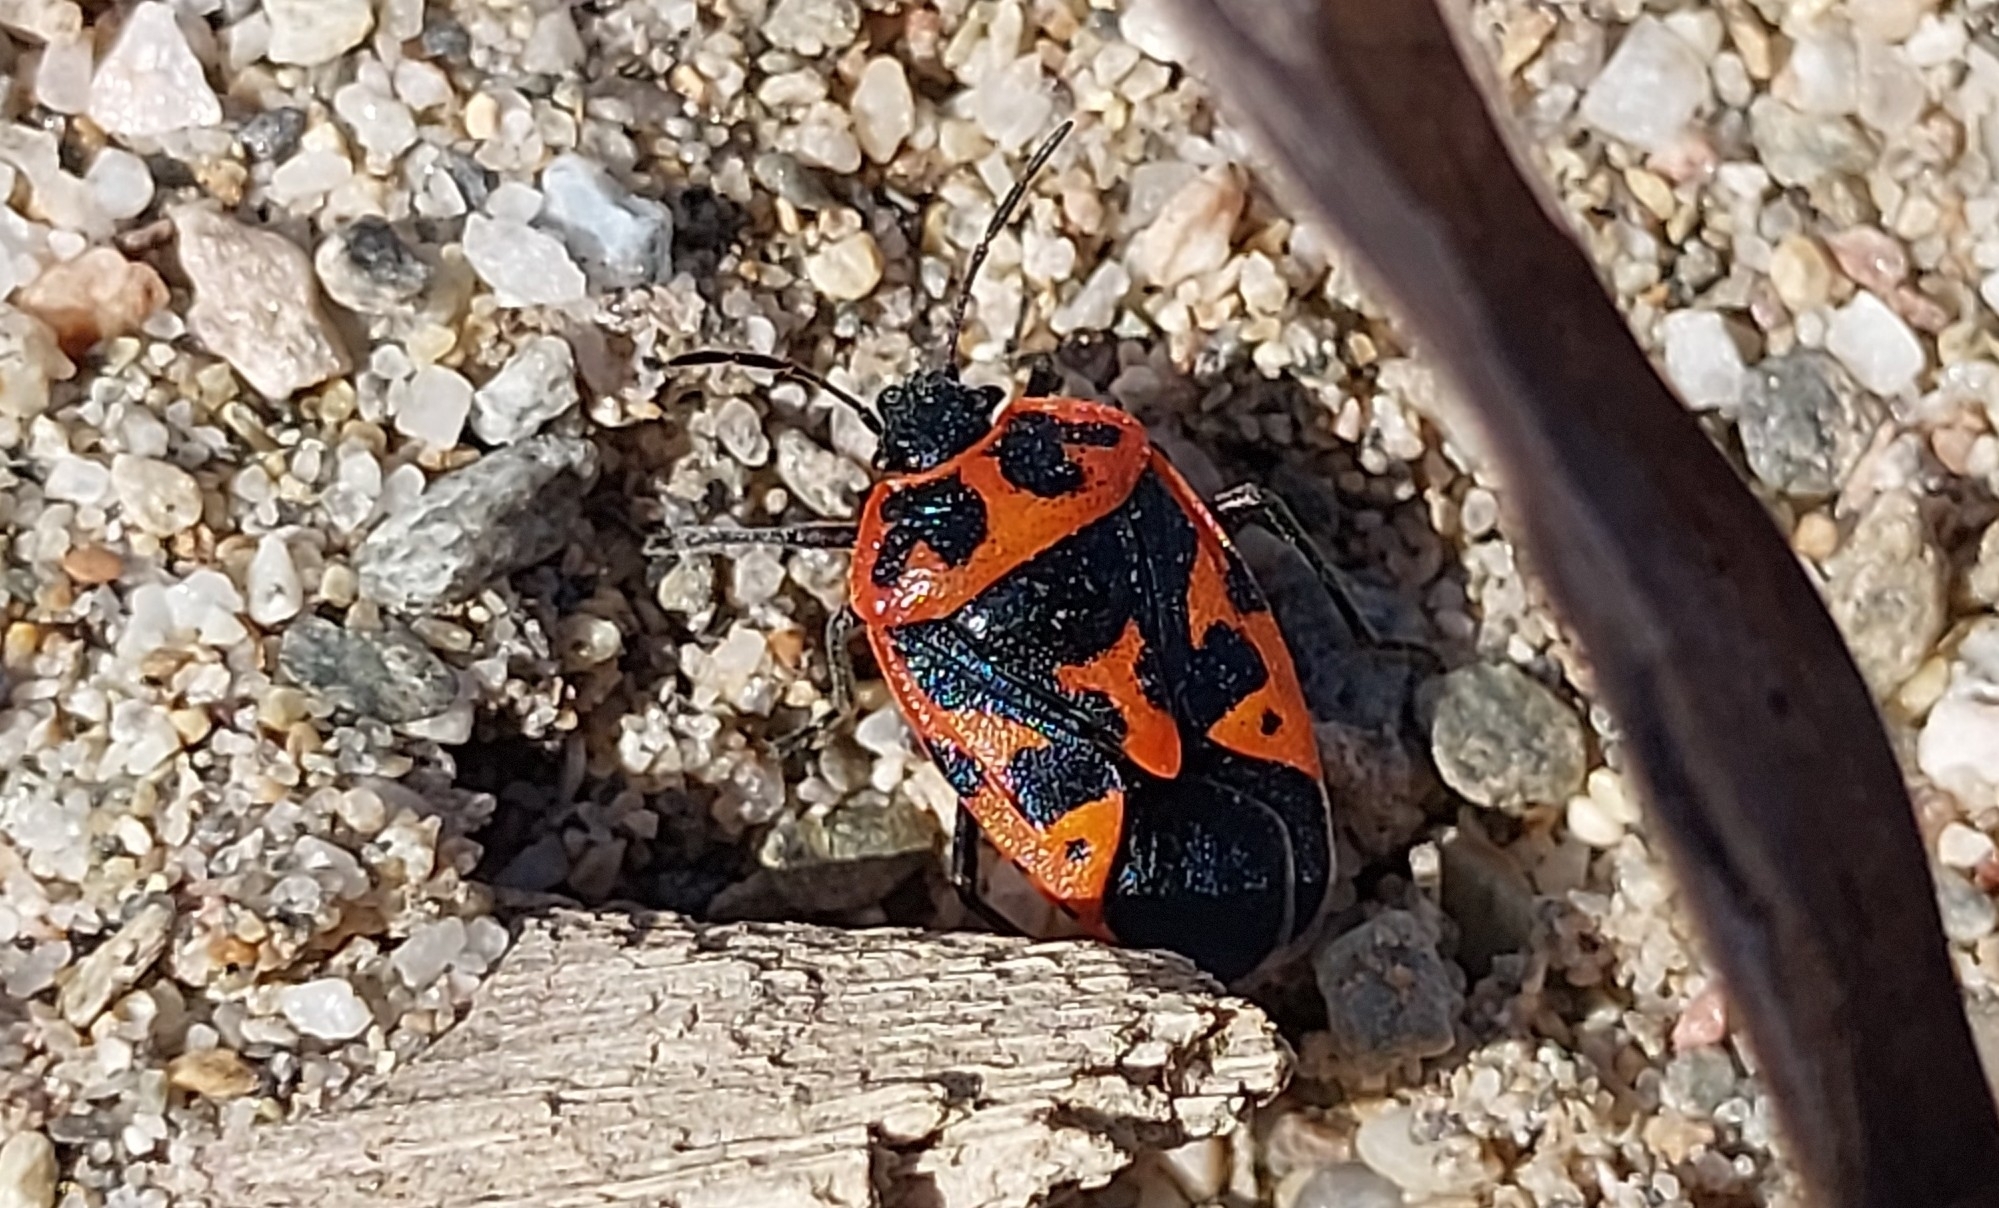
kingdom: Animalia
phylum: Arthropoda
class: Insecta
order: Hemiptera
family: Pentatomidae
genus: Eurydema
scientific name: Eurydema spectabilis
